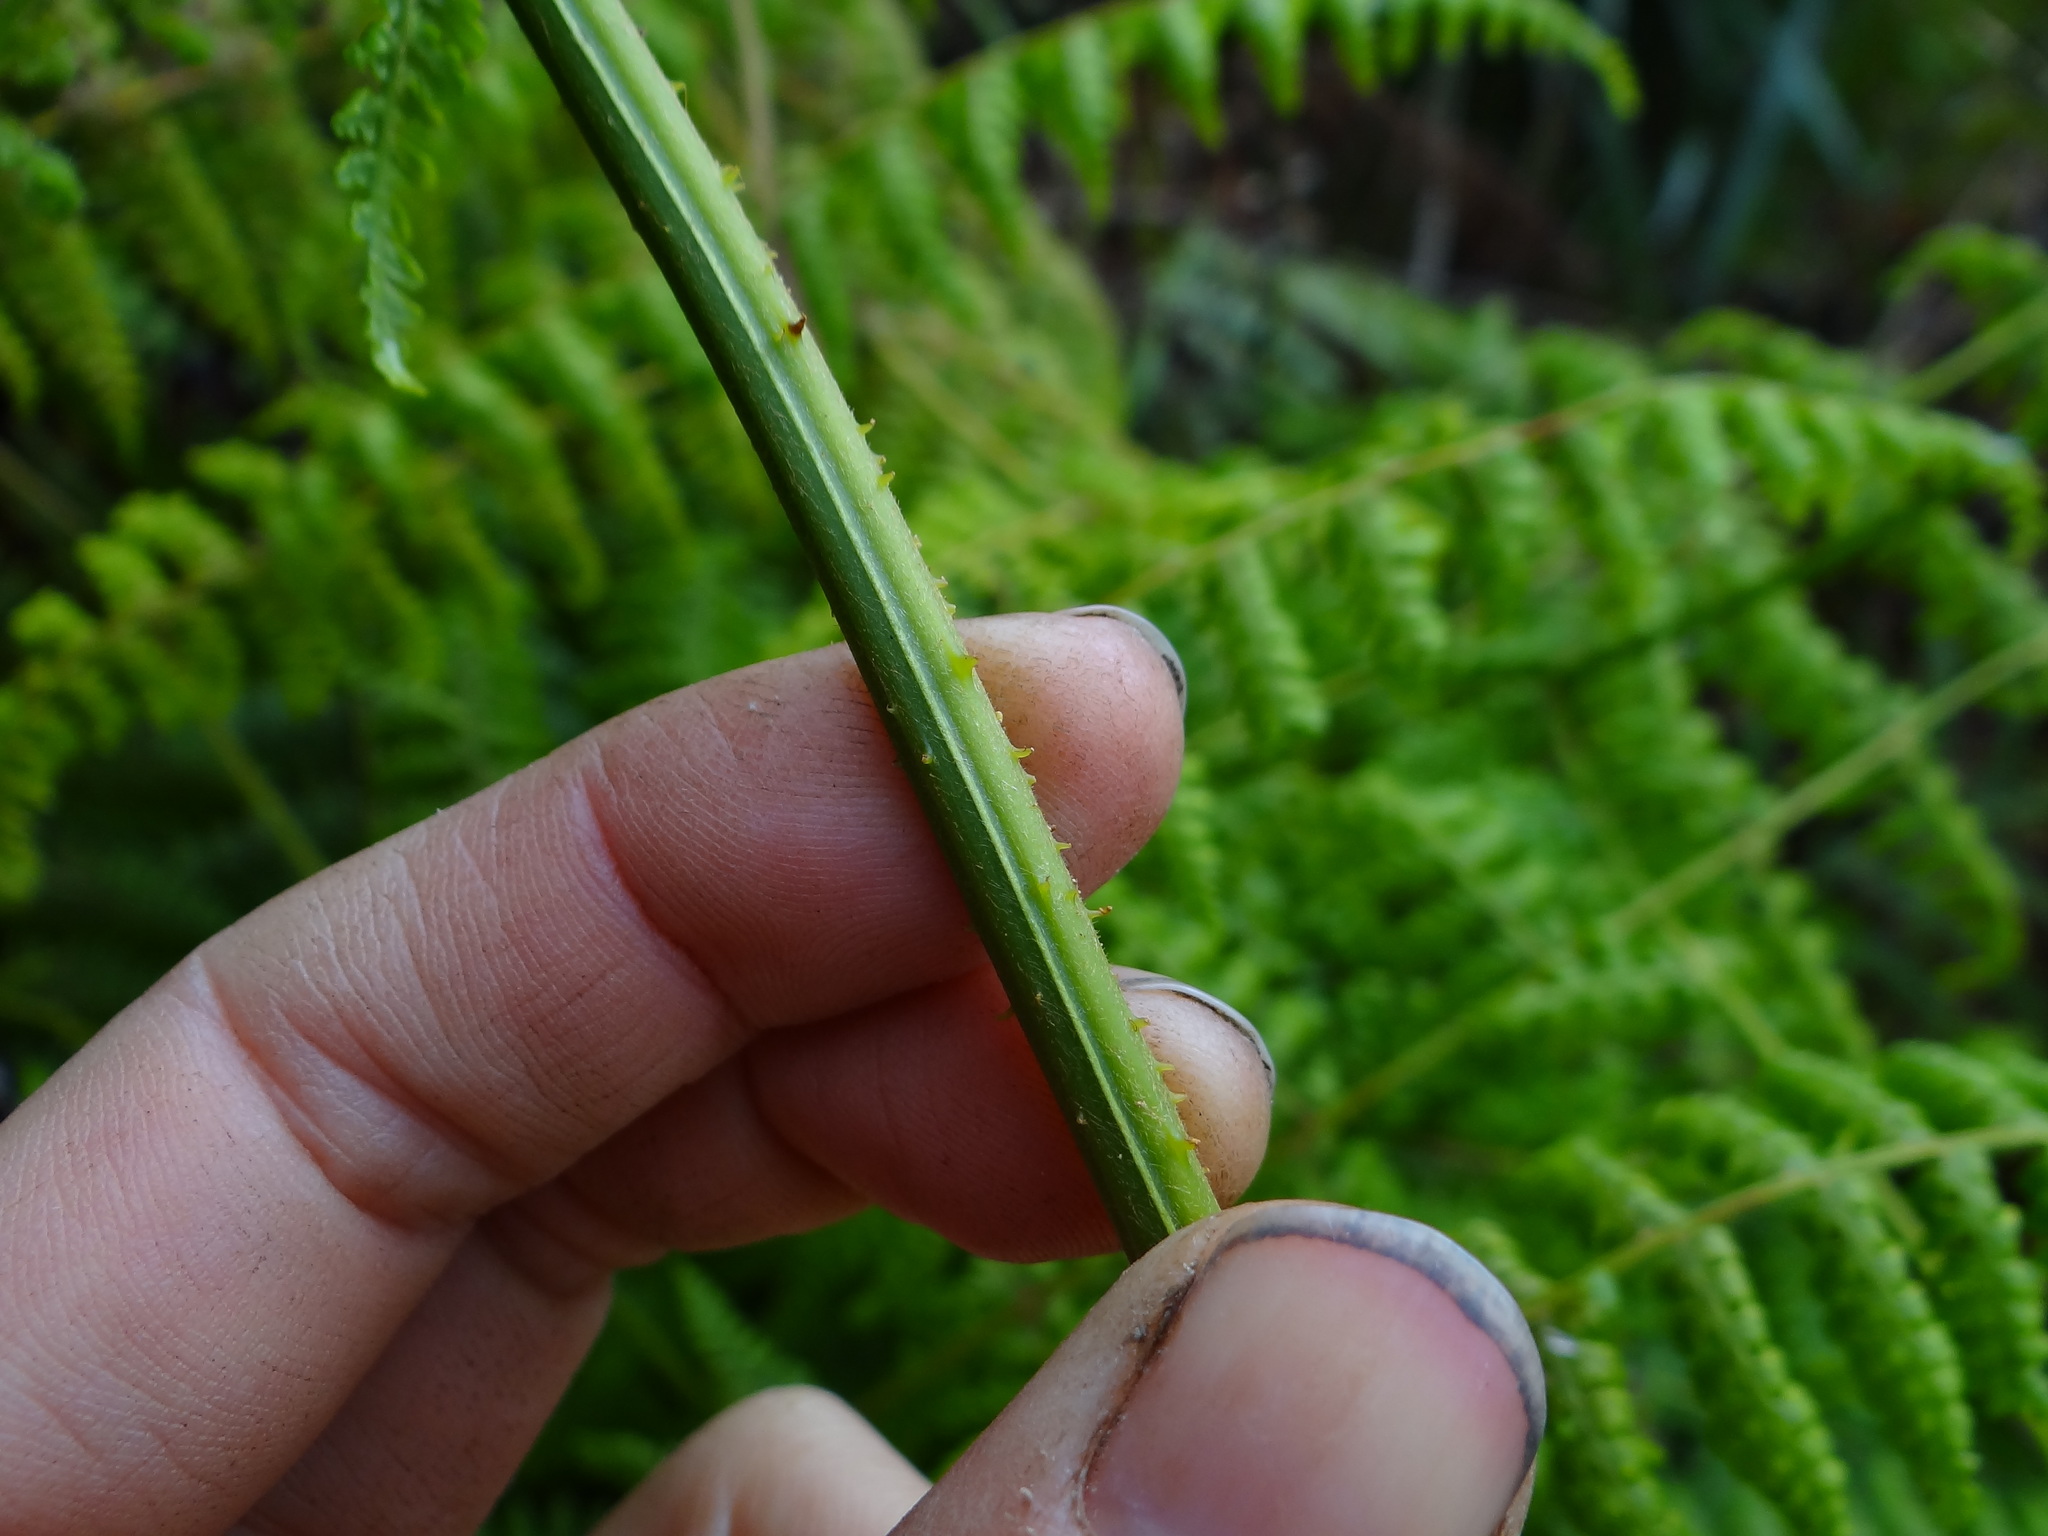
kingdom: Plantae
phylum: Tracheophyta
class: Polypodiopsida
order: Polypodiales
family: Dennstaedtiaceae
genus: Dennstaedtia
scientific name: Dennstaedtia scandens
